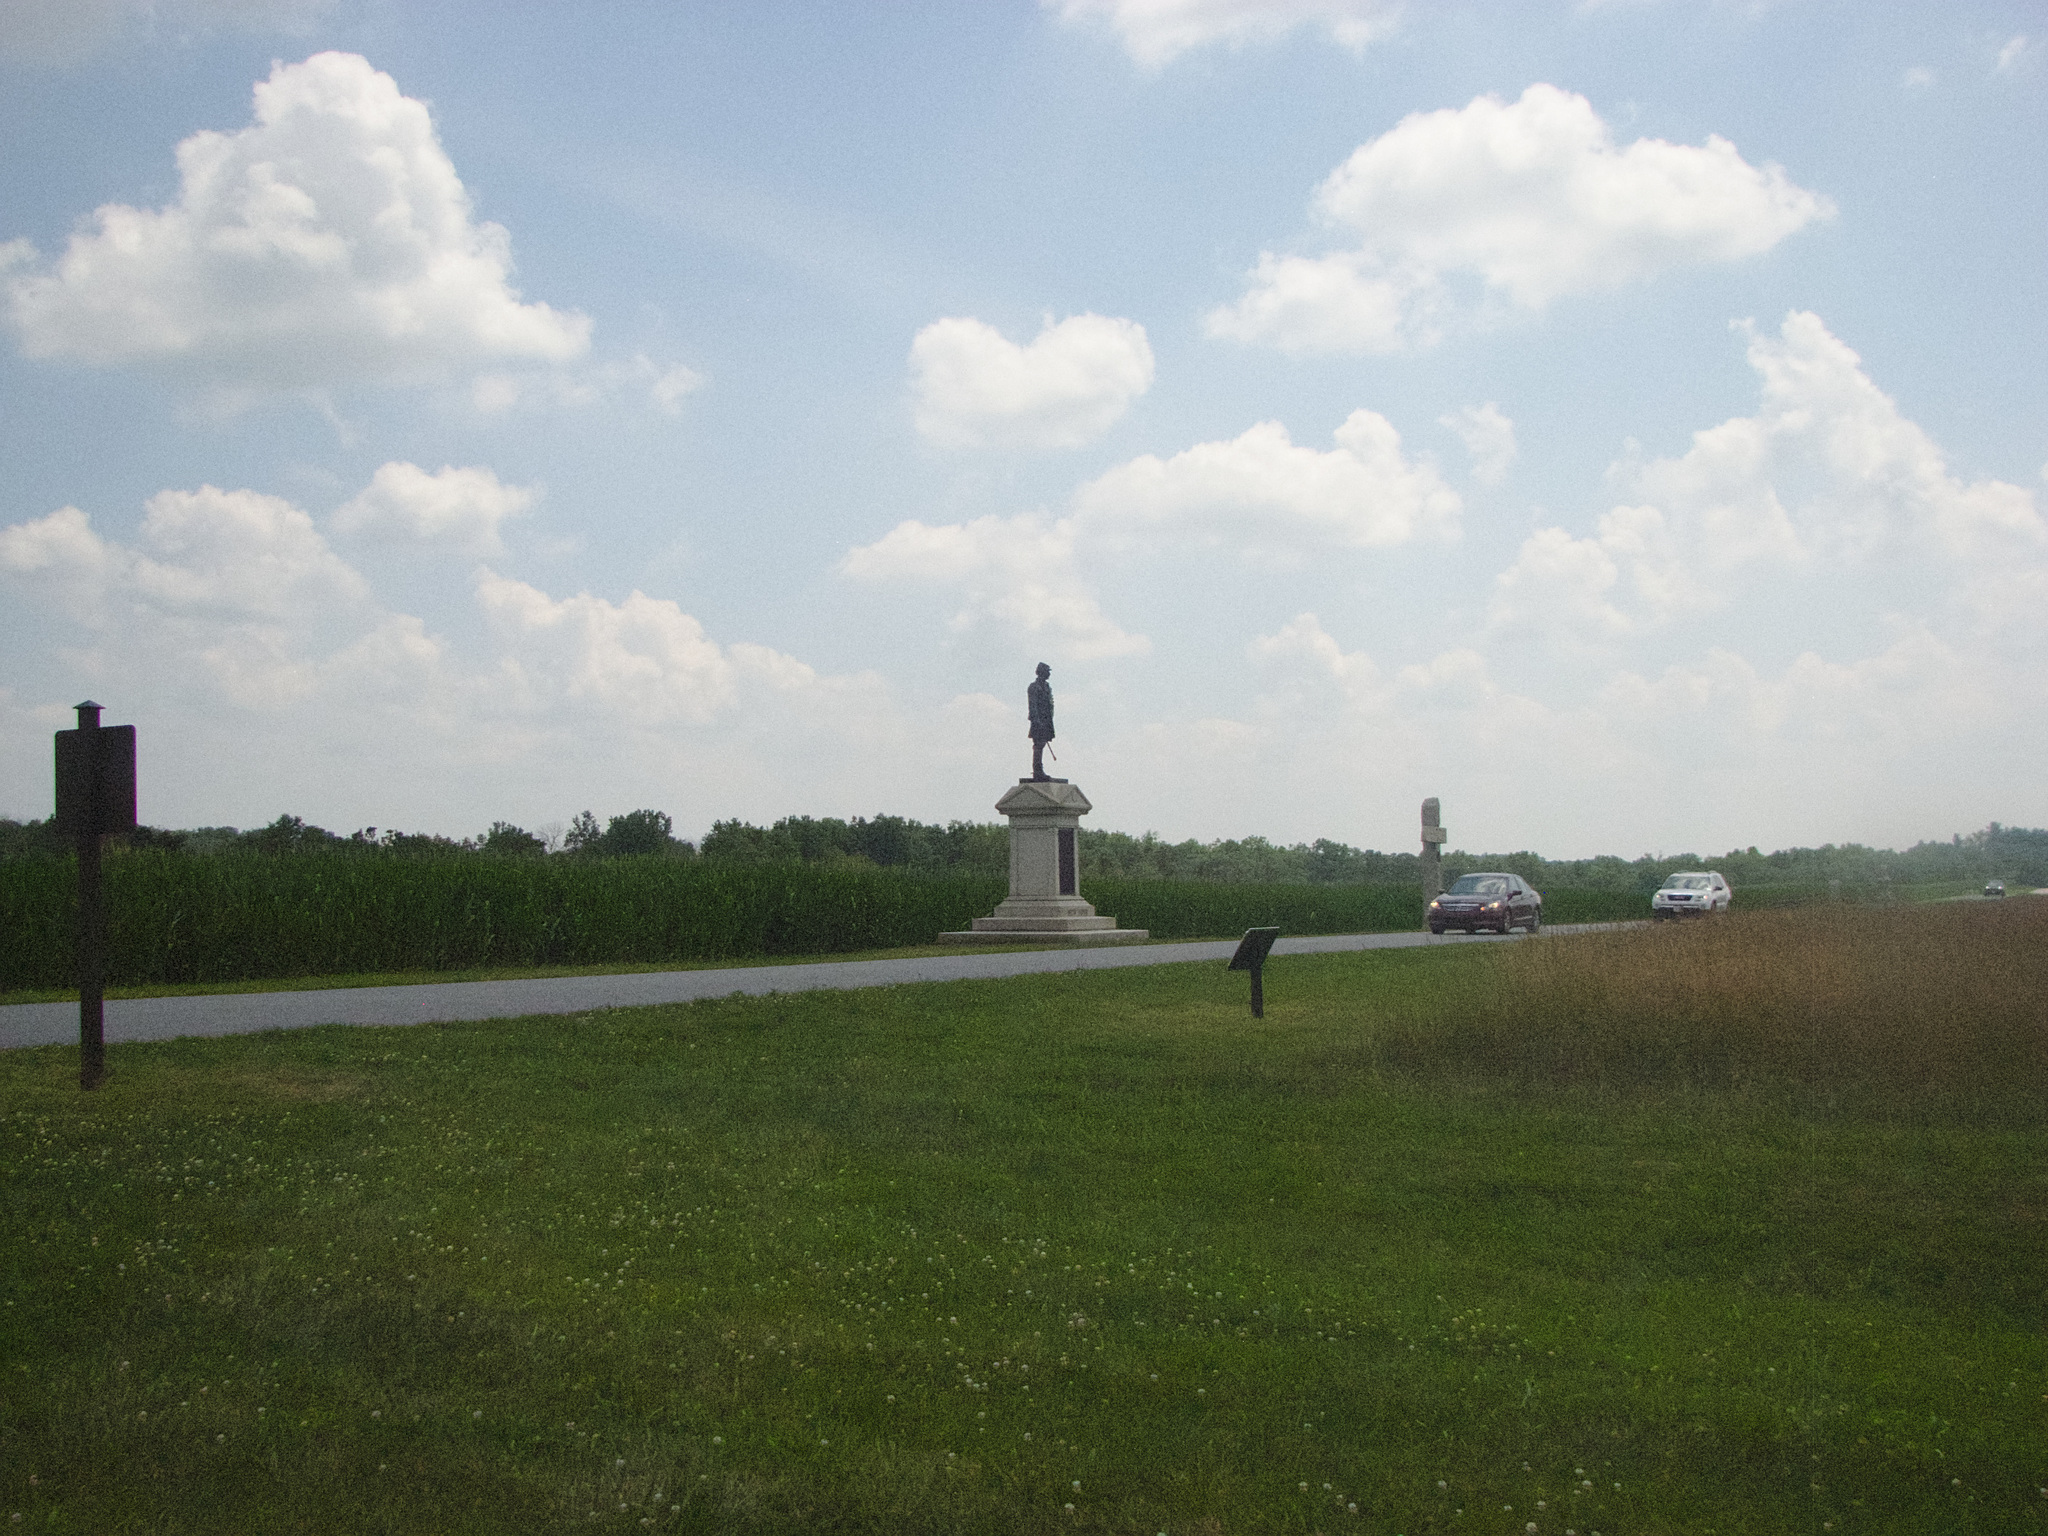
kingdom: Plantae
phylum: Tracheophyta
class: Magnoliopsida
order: Fabales
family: Fabaceae
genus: Trifolium
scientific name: Trifolium repens
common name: White clover
